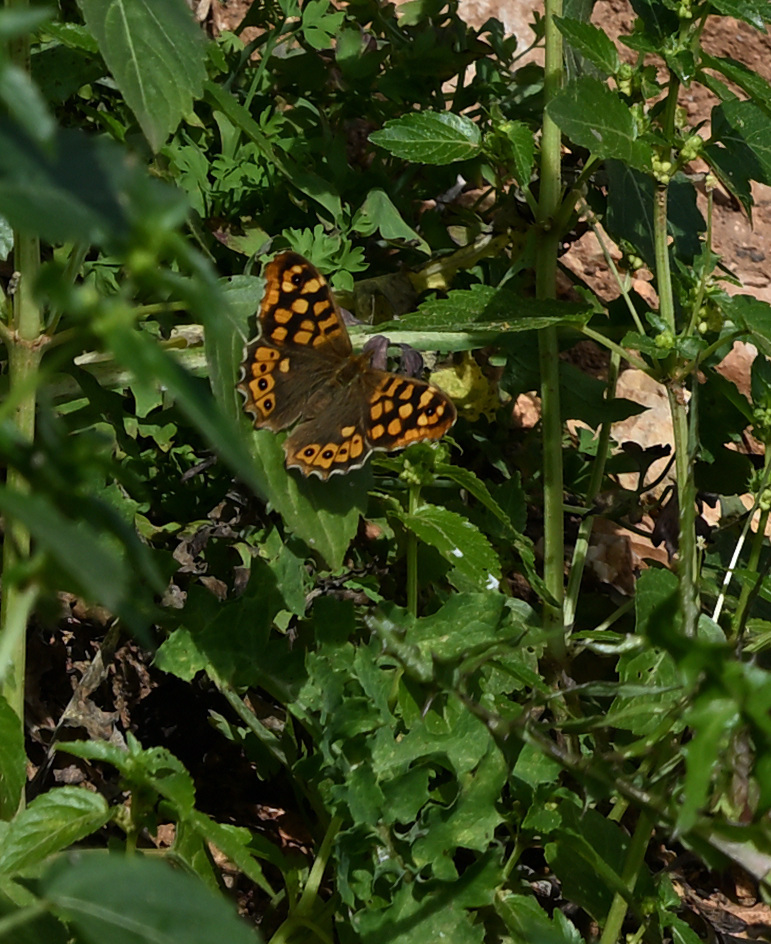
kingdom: Animalia
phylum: Arthropoda
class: Insecta
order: Lepidoptera
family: Nymphalidae
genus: Pararge
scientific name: Pararge aegeria
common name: Speckled wood
